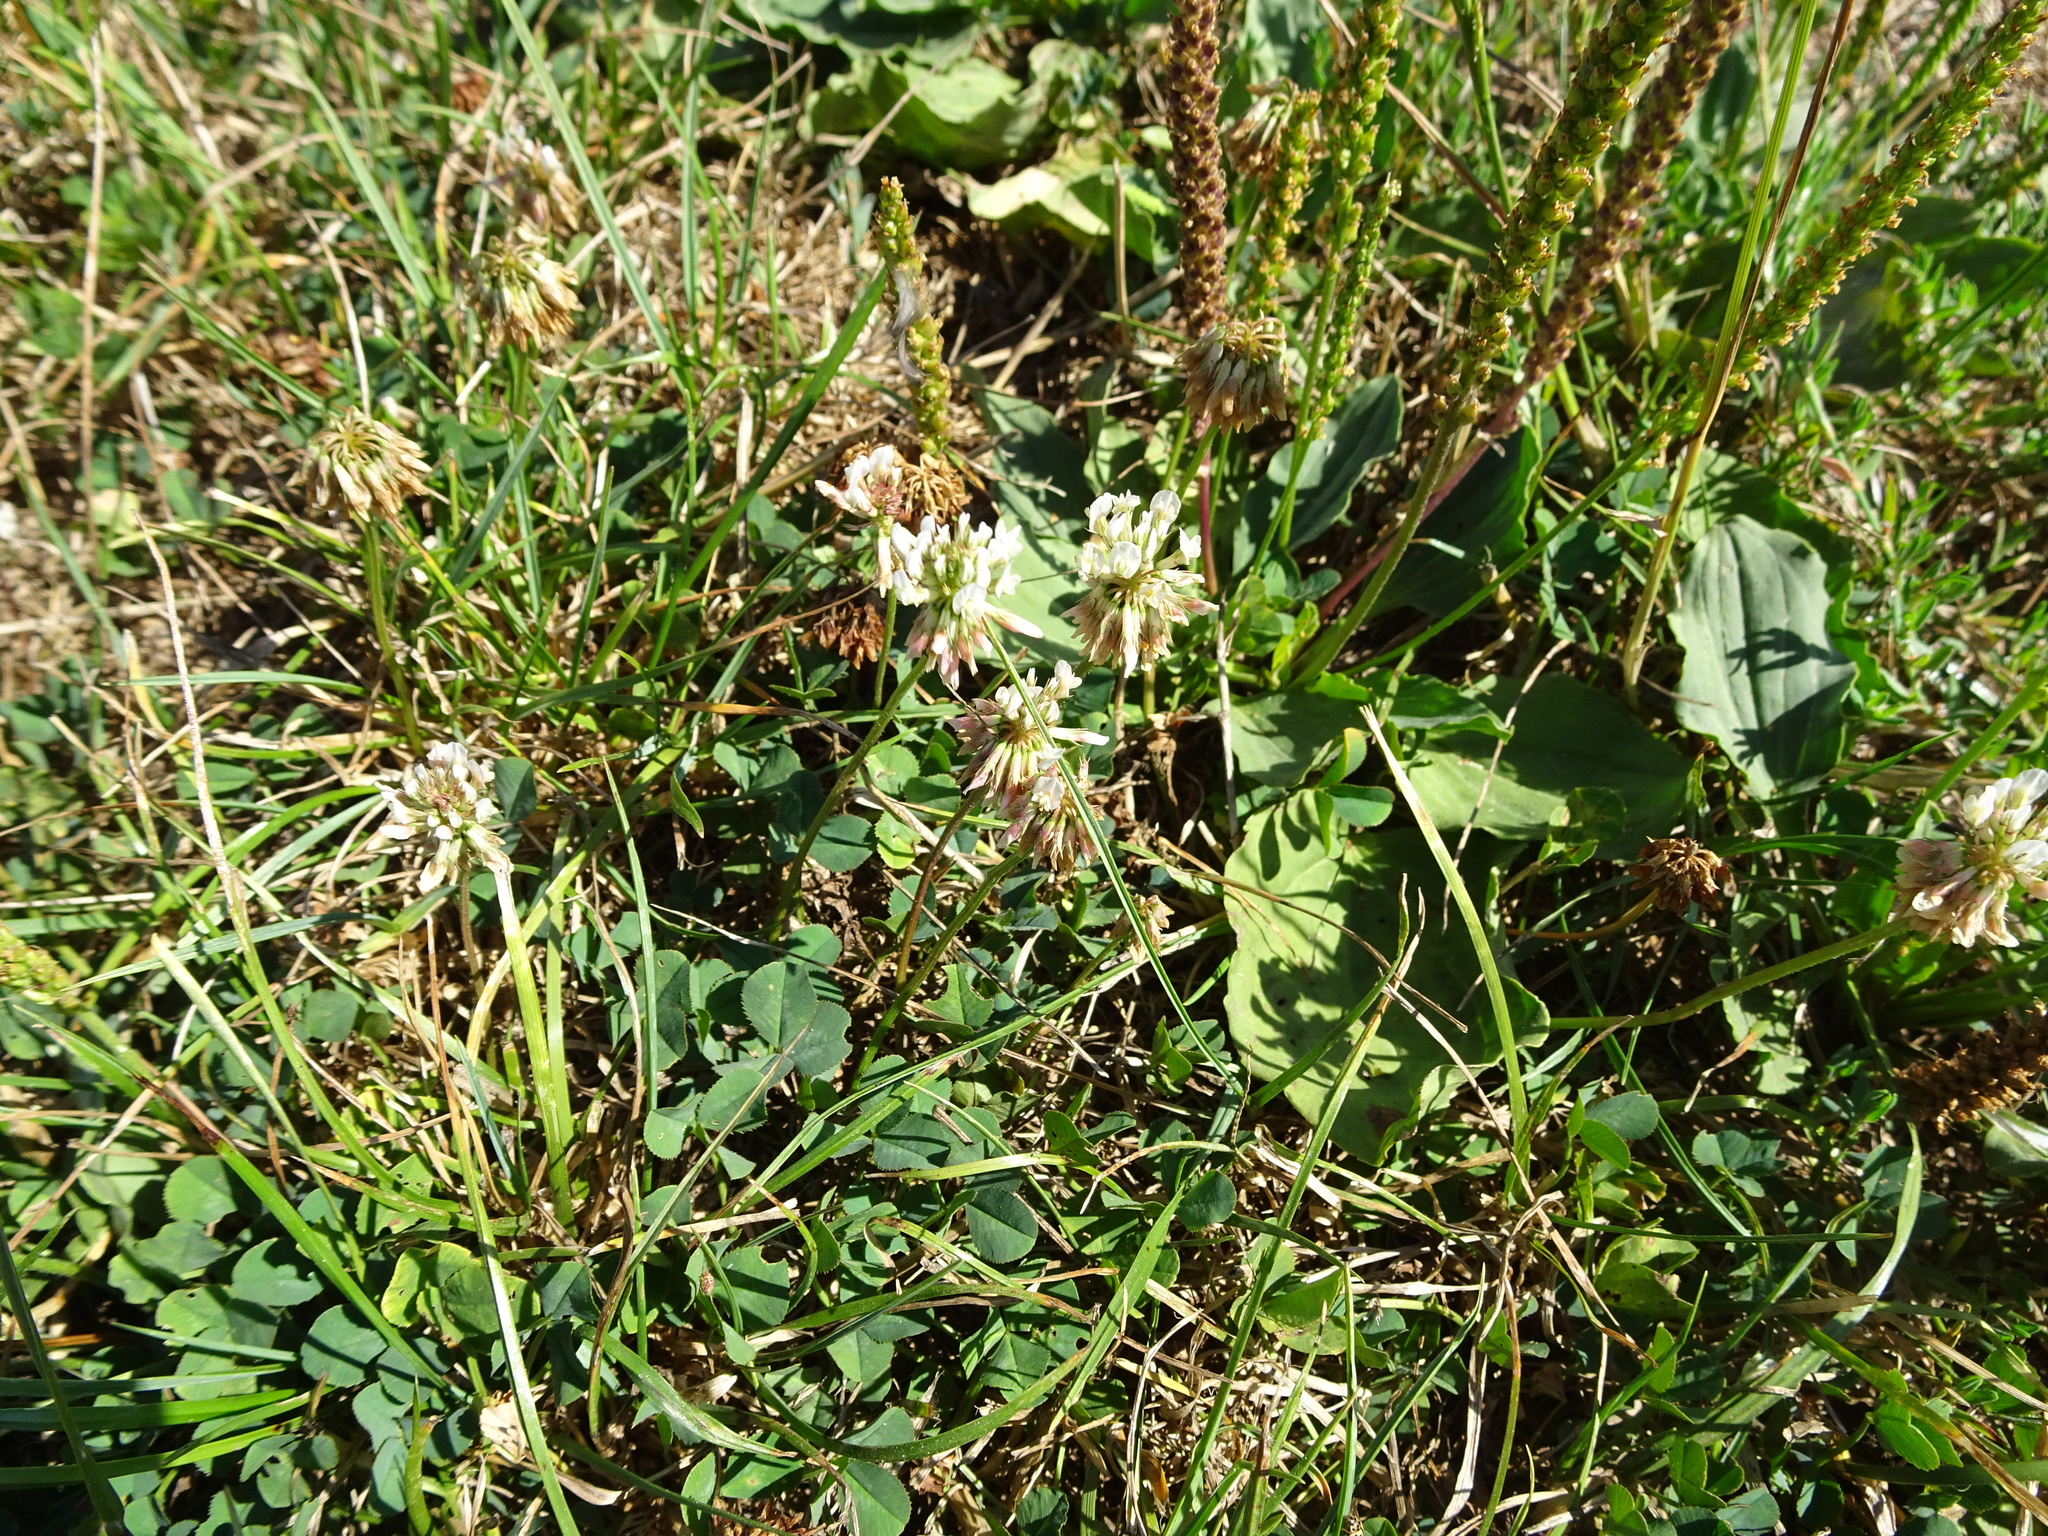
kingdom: Plantae
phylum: Tracheophyta
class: Magnoliopsida
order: Fabales
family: Fabaceae
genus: Trifolium
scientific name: Trifolium repens
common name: White clover
